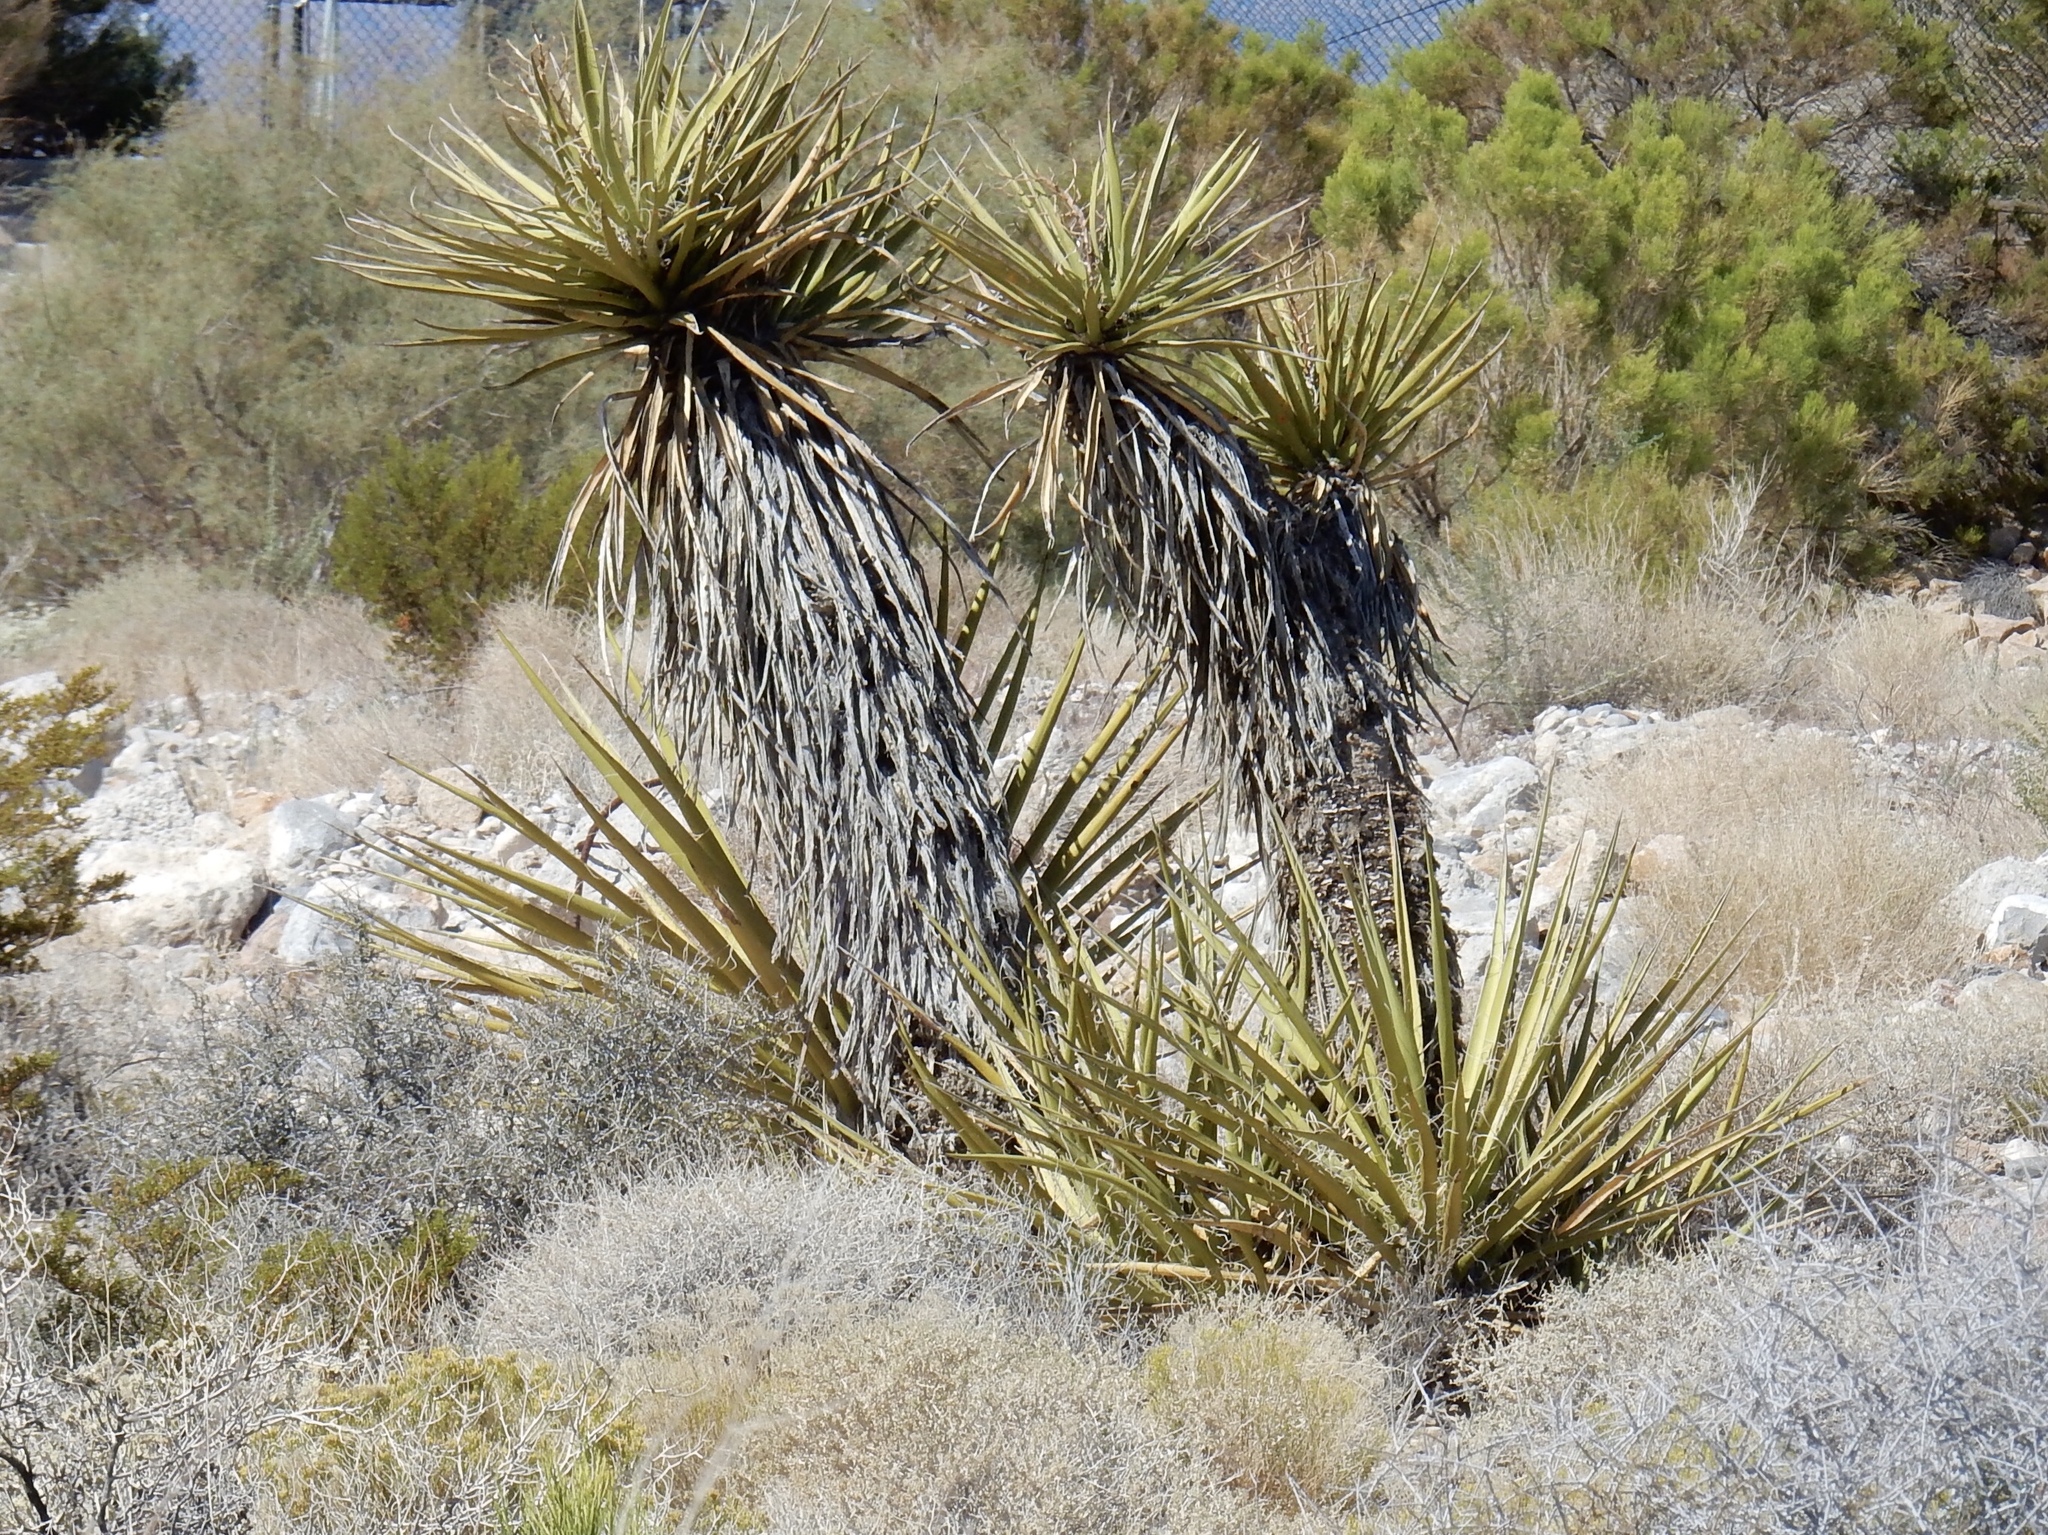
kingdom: Plantae
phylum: Tracheophyta
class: Liliopsida
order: Asparagales
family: Asparagaceae
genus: Yucca
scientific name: Yucca schidigera
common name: Mojave yucca
